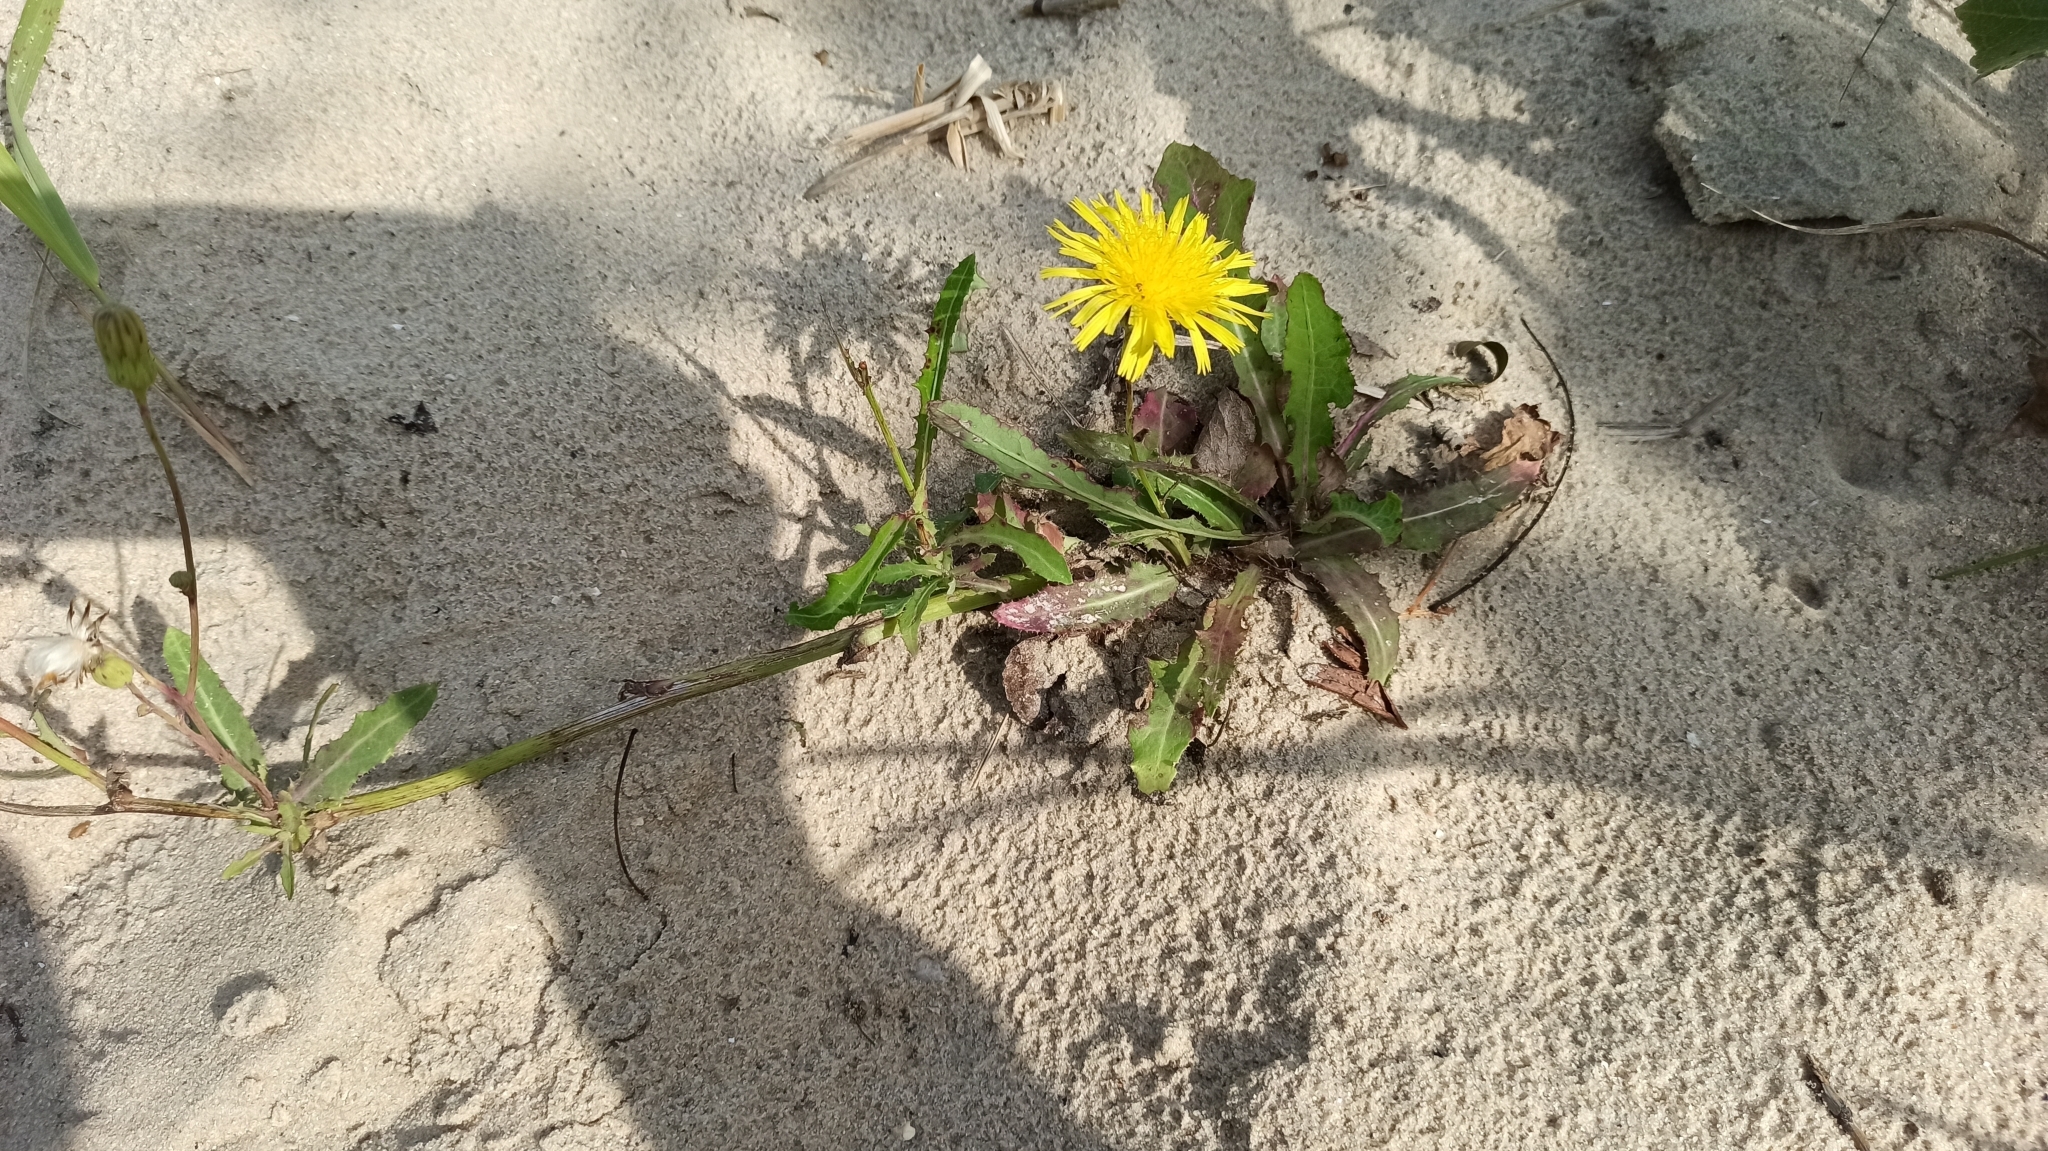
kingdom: Plantae
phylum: Tracheophyta
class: Magnoliopsida
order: Asterales
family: Asteraceae
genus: Sonchus
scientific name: Sonchus arvensis
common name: Perennial sow-thistle
